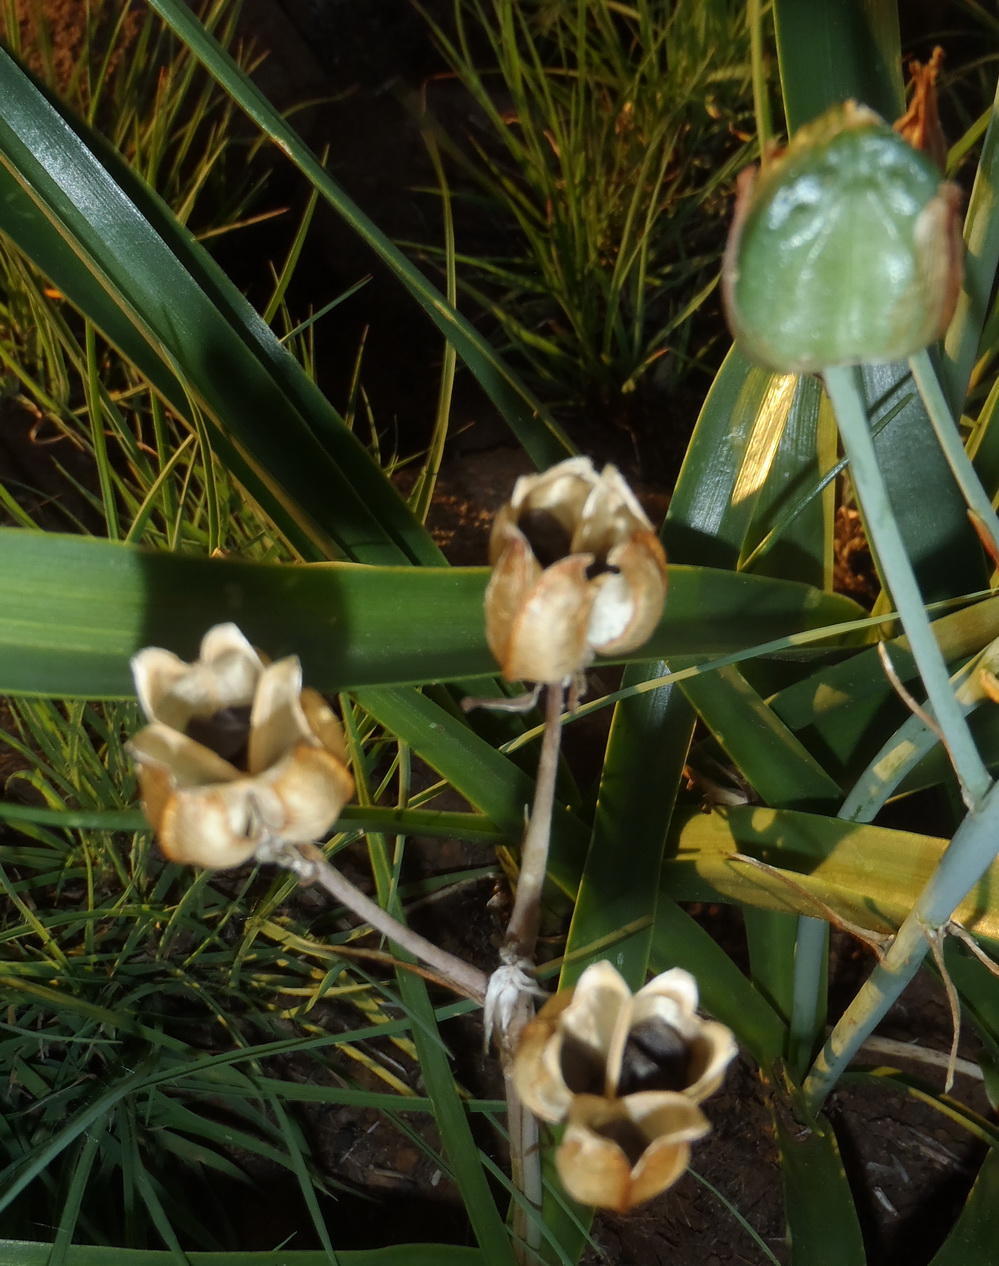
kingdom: Plantae
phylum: Tracheophyta
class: Liliopsida
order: Asparagales
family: Asparagaceae
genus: Albuca
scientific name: Albuca setosa
